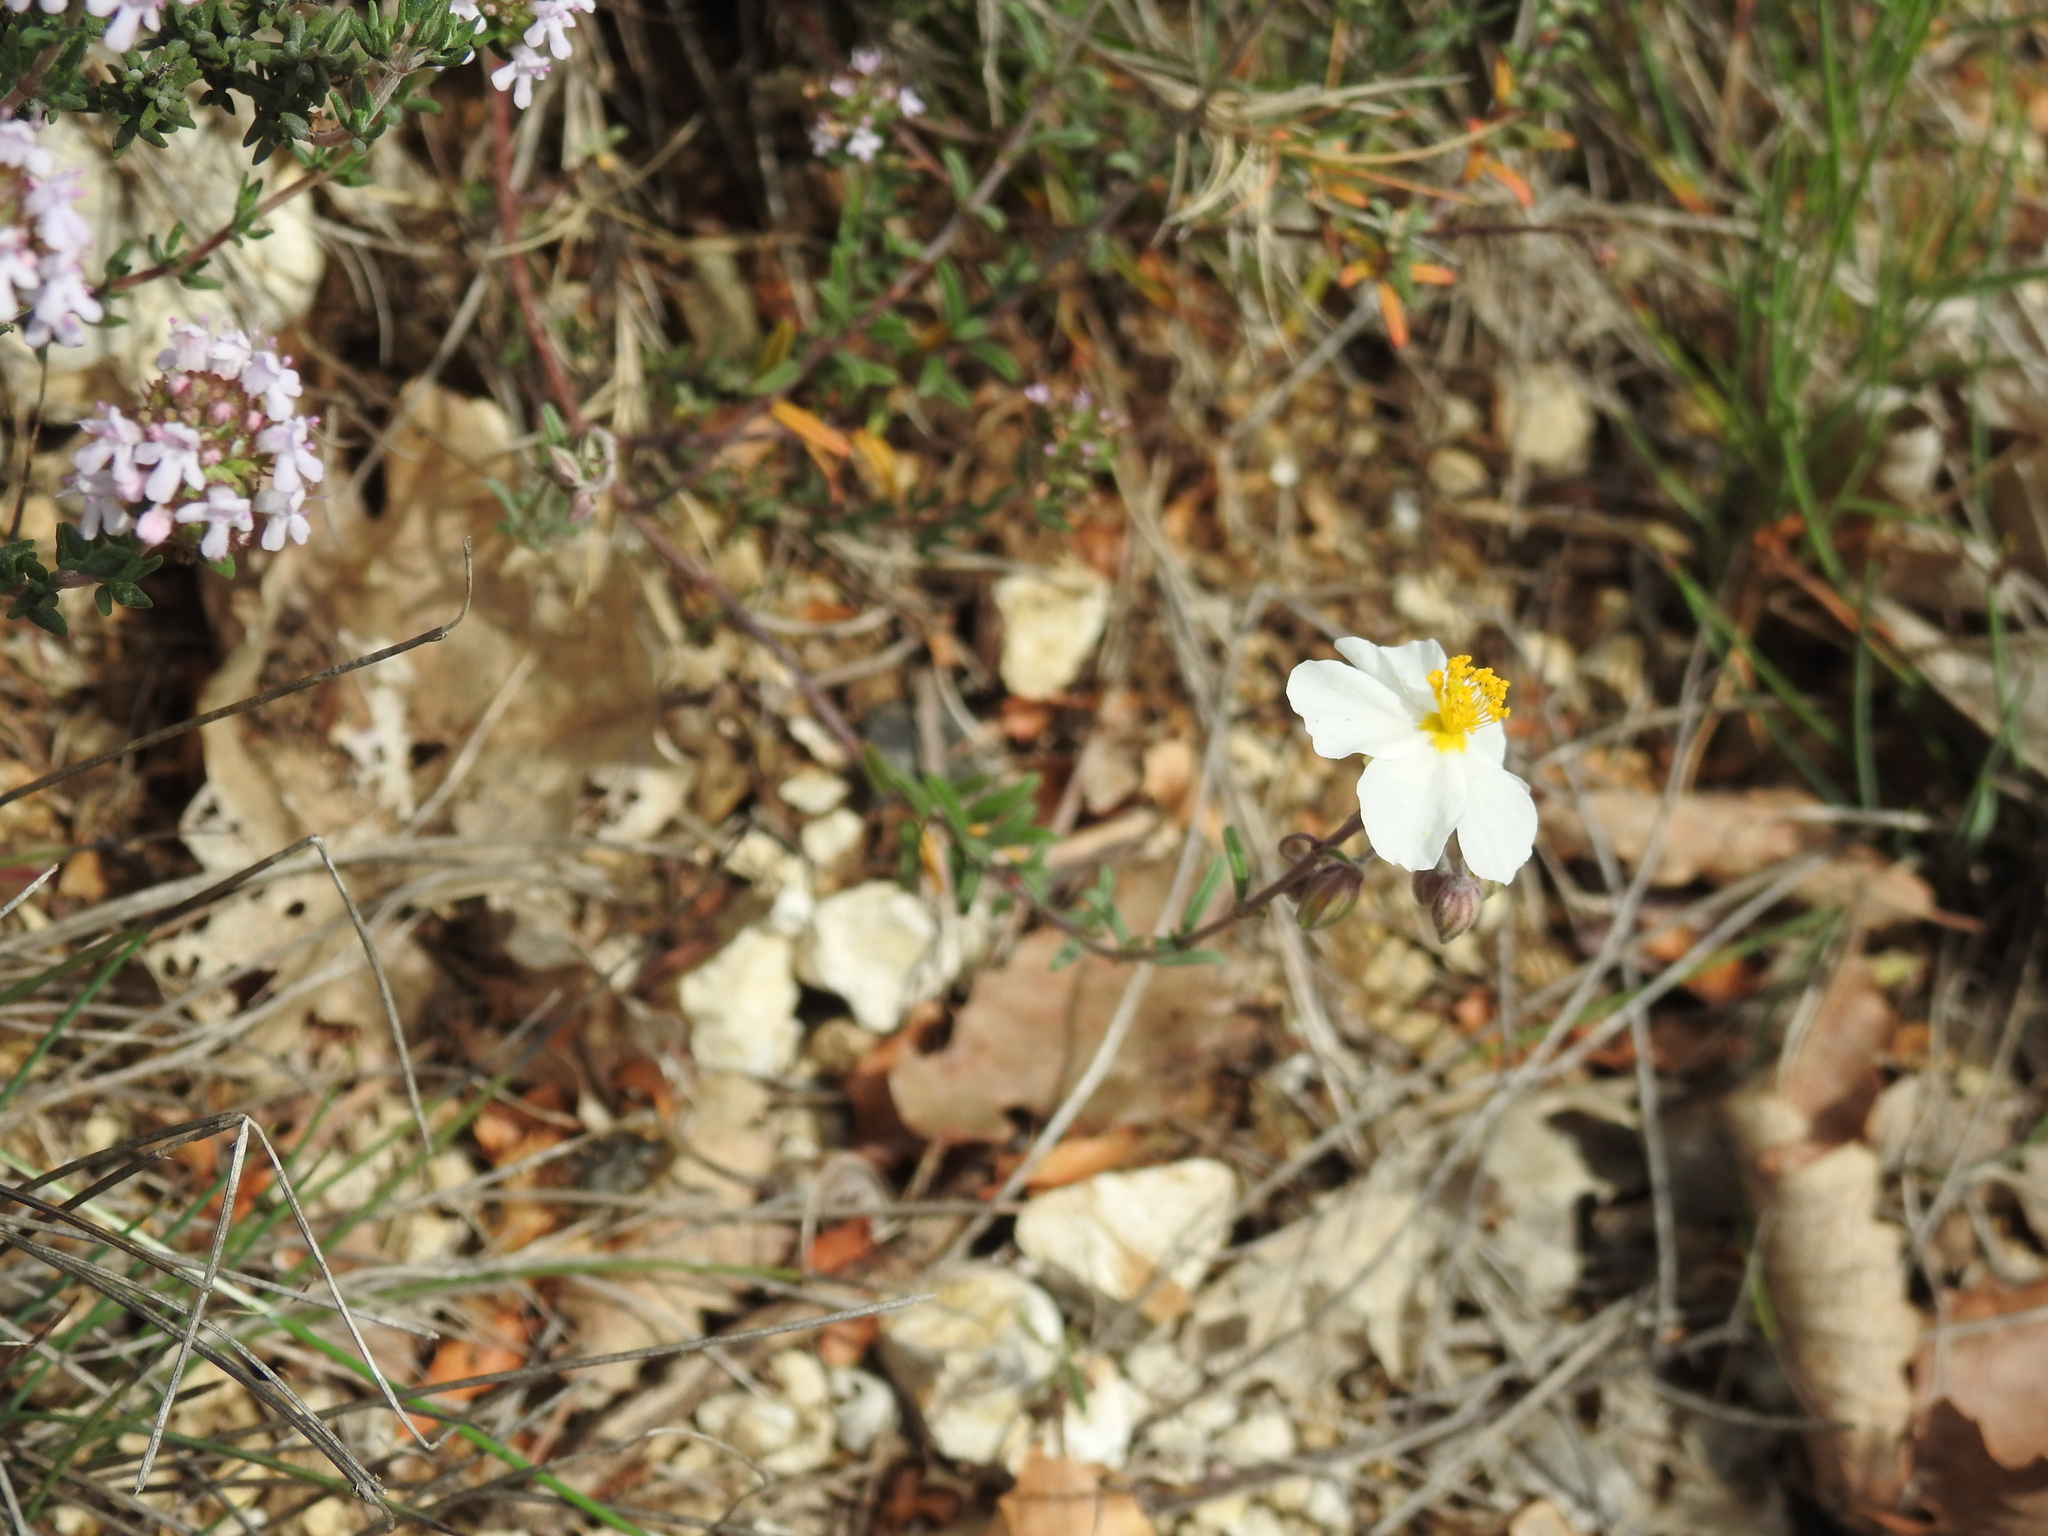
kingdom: Plantae
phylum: Tracheophyta
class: Magnoliopsida
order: Malvales
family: Cistaceae
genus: Helianthemum
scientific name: Helianthemum apenninum
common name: White rock-rose
